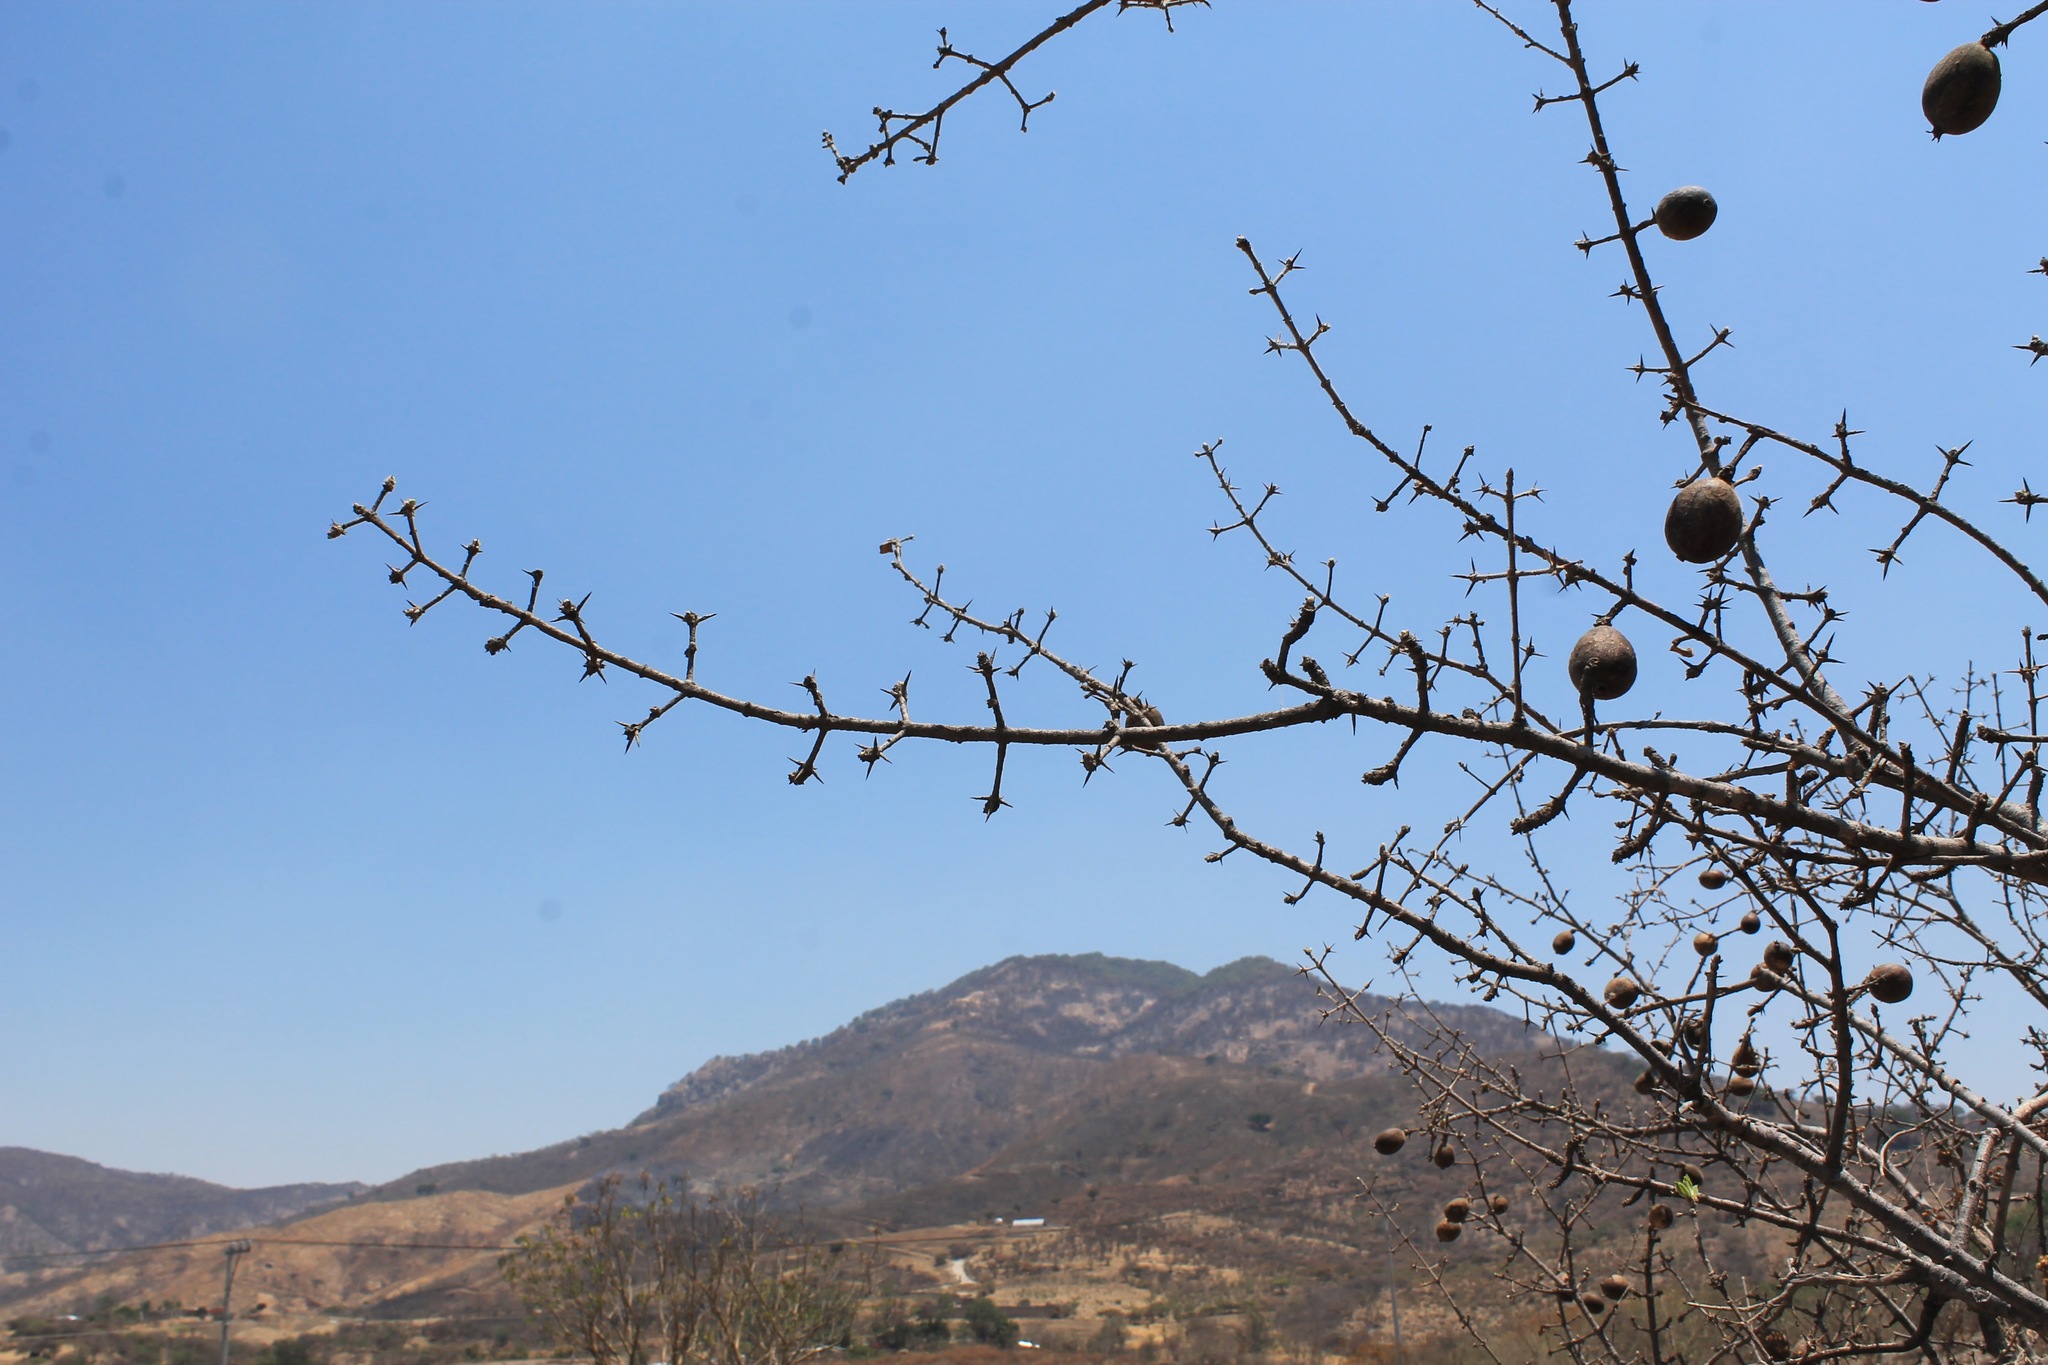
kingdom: Plantae
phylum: Tracheophyta
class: Magnoliopsida
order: Gentianales
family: Rubiaceae
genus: Randia
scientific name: Randia tetracantha
